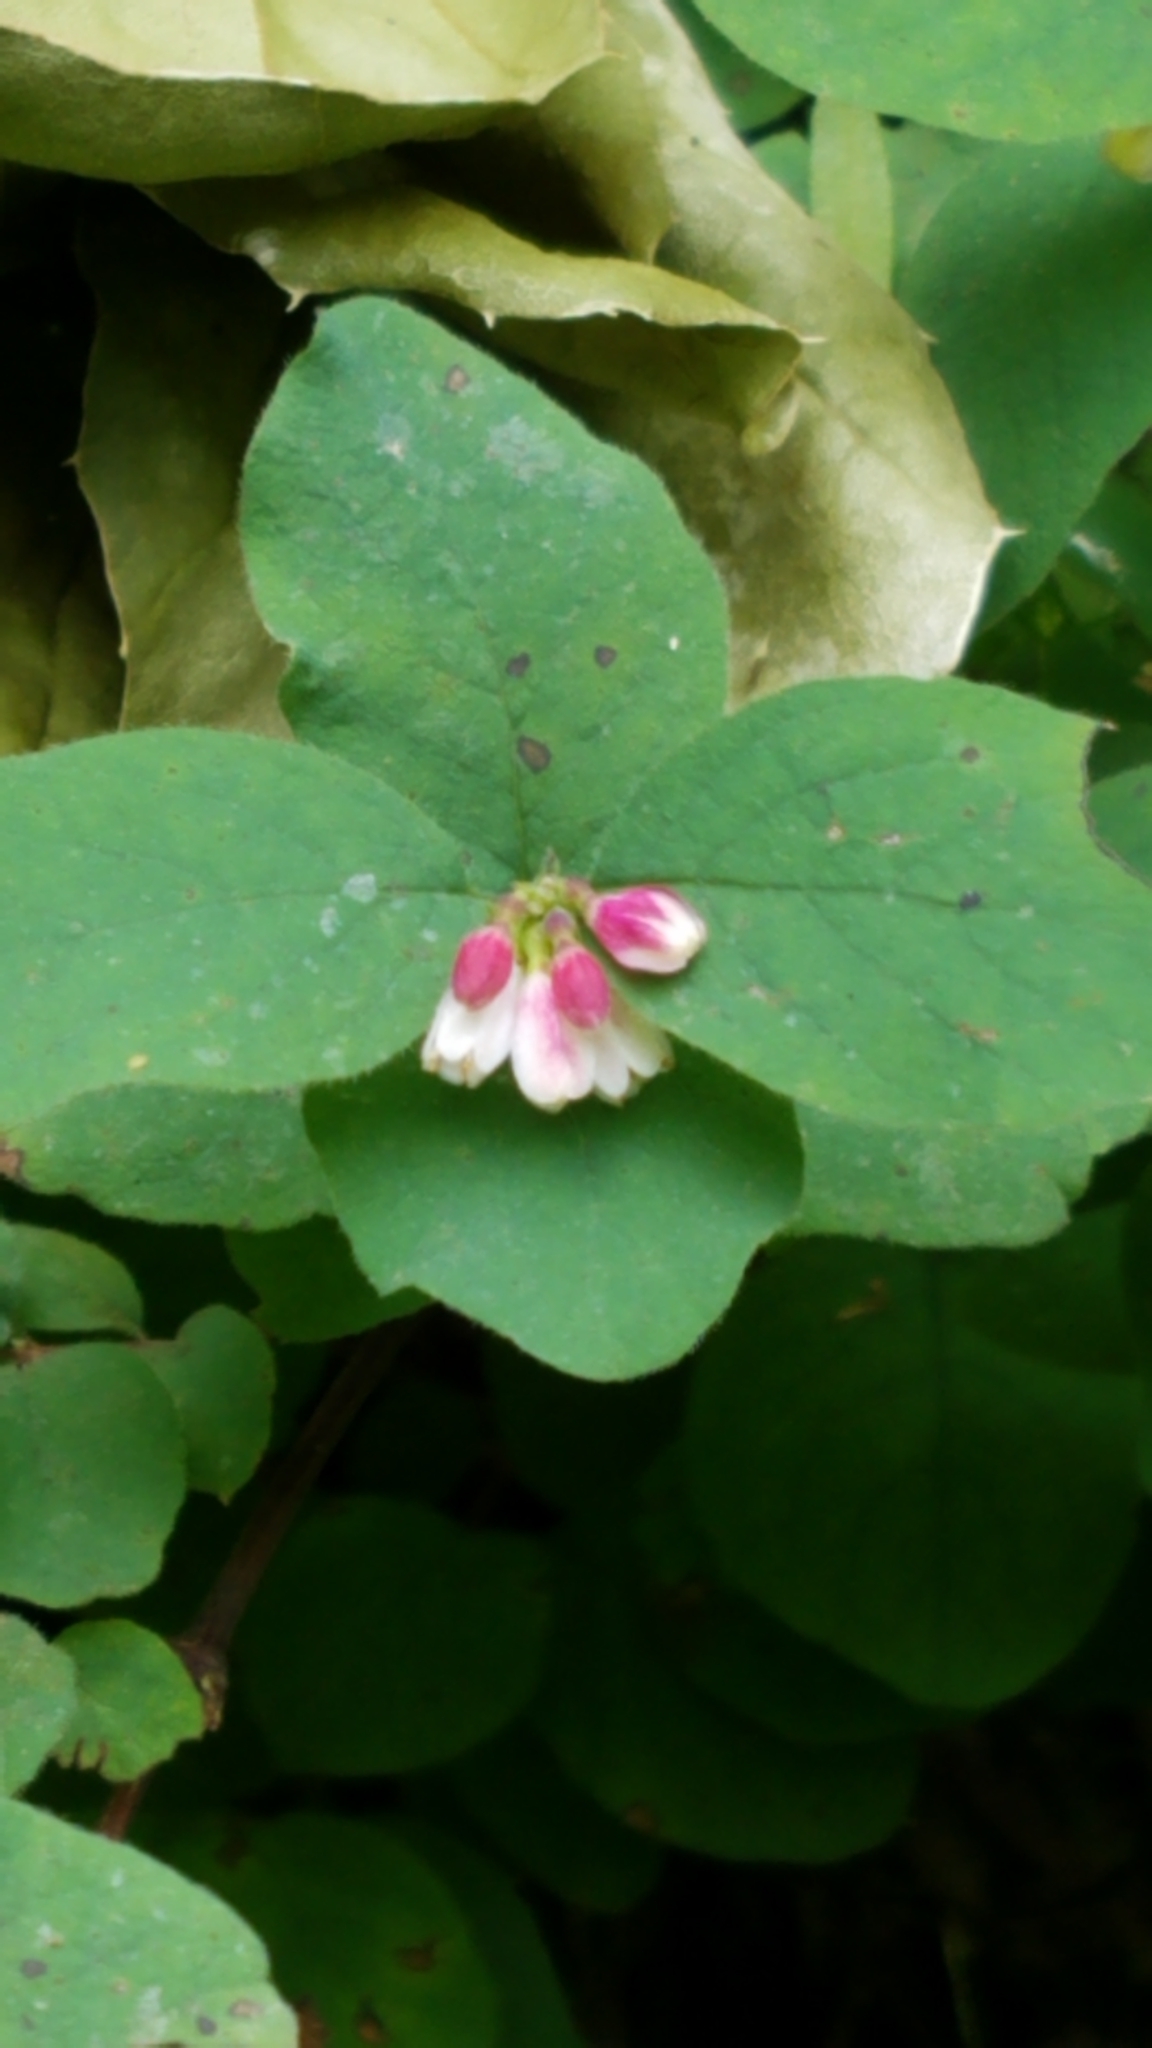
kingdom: Plantae
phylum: Tracheophyta
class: Magnoliopsida
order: Dipsacales
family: Caprifoliaceae
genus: Symphoricarpos
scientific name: Symphoricarpos albus
